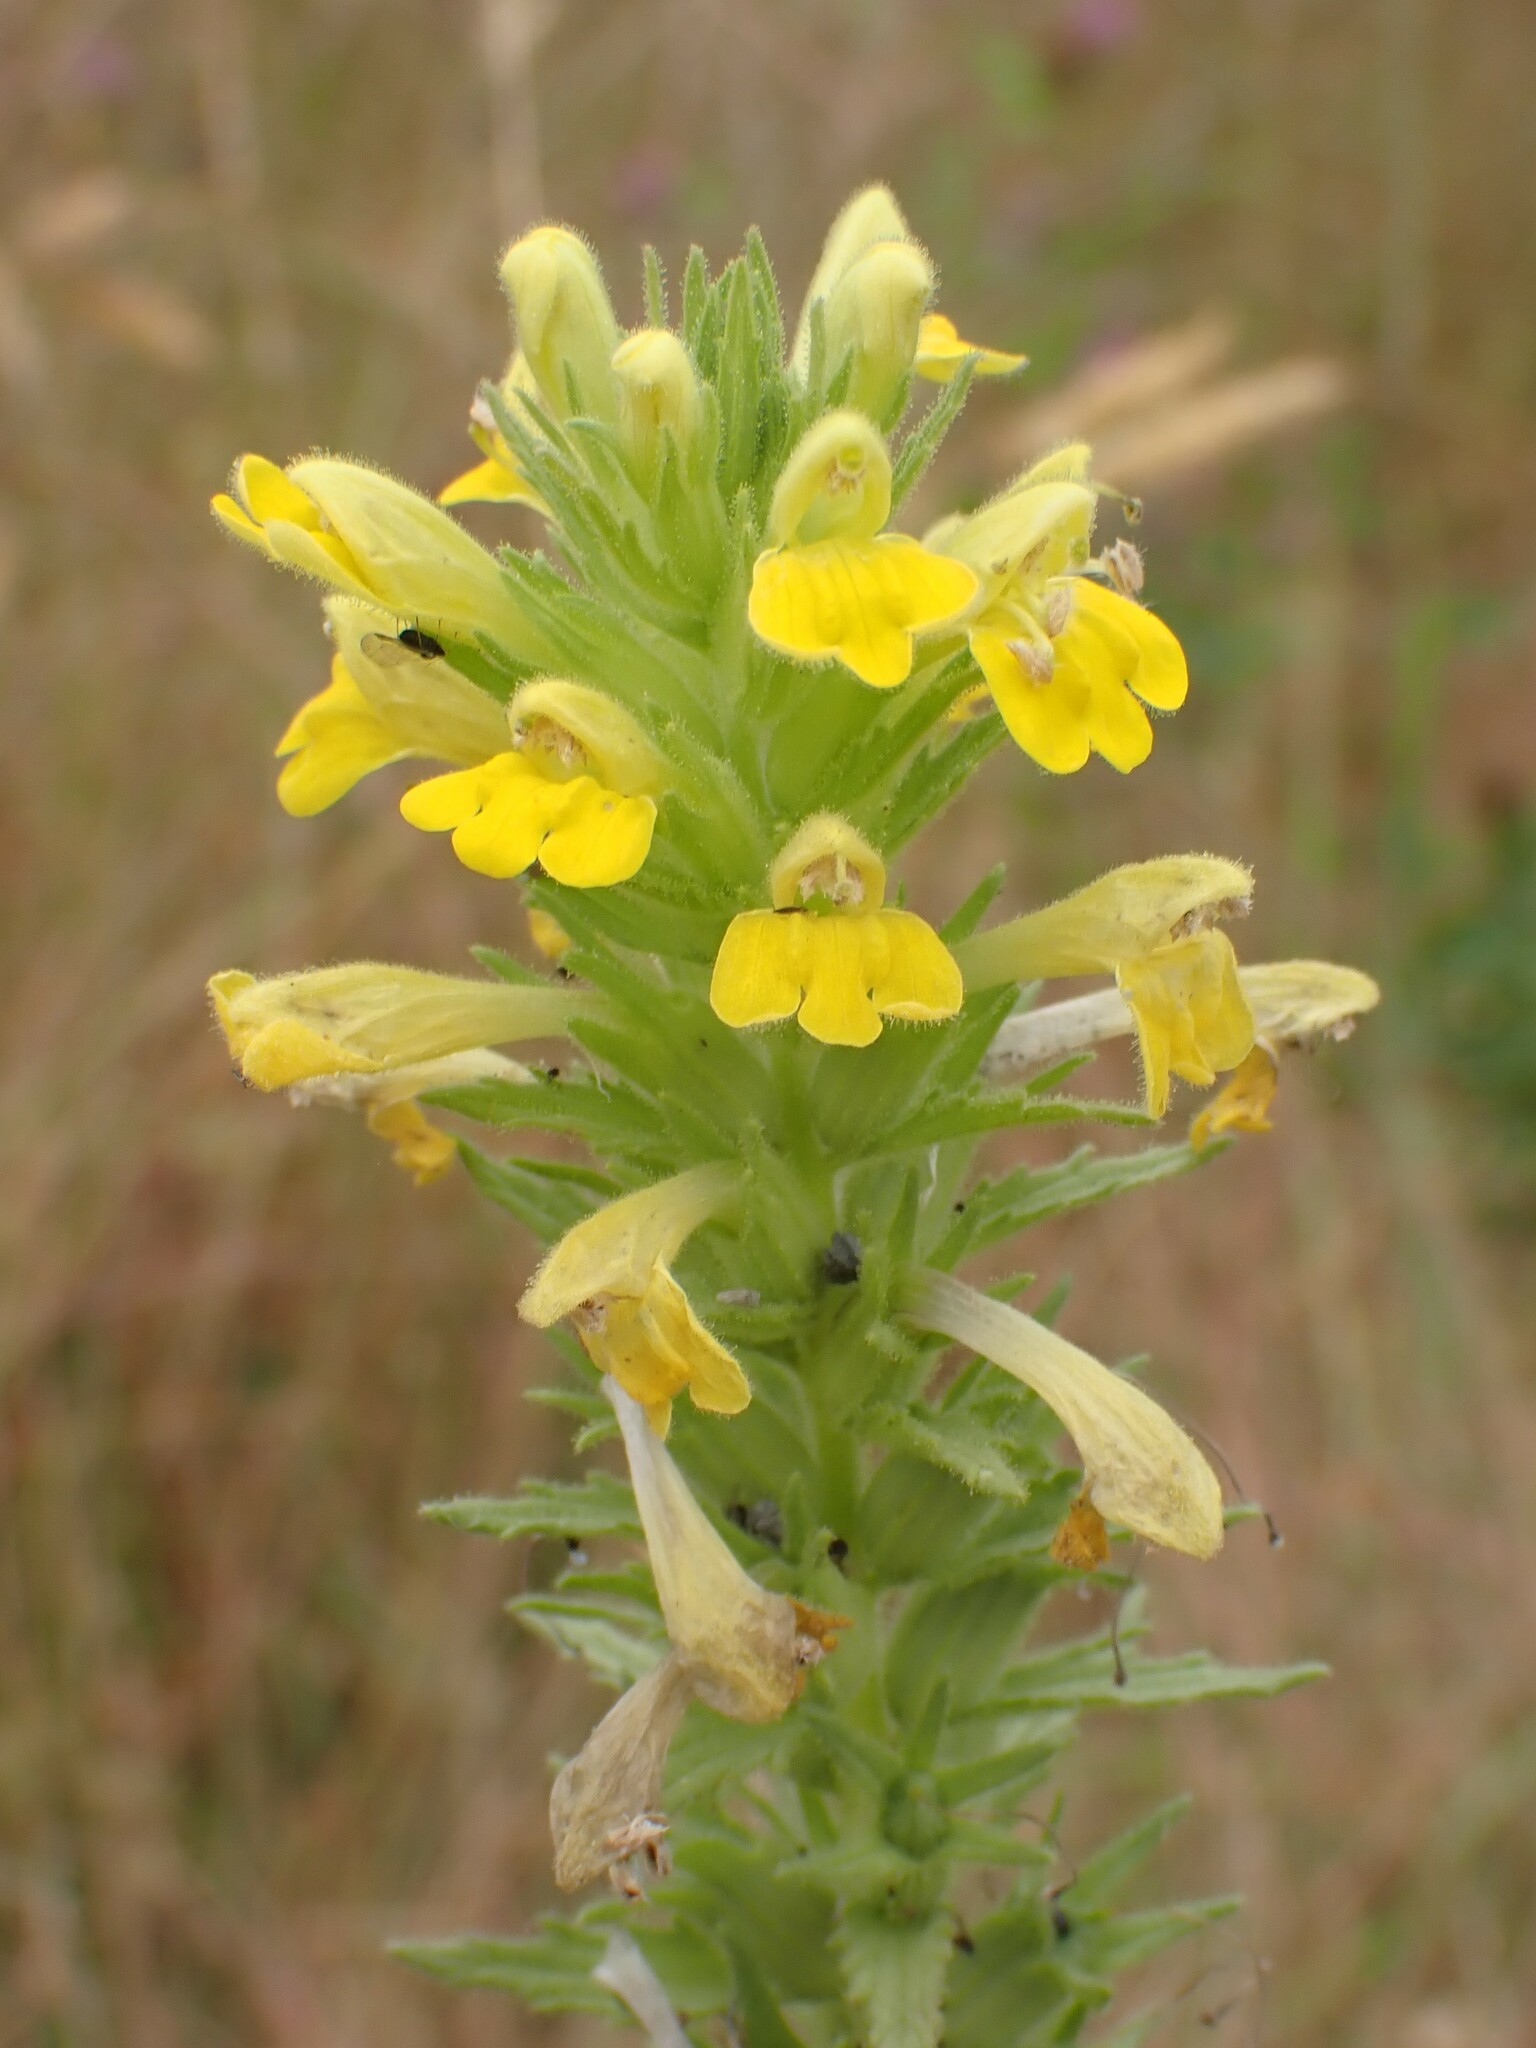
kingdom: Plantae
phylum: Tracheophyta
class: Magnoliopsida
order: Lamiales
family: Orobanchaceae
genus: Bellardia
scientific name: Bellardia viscosa
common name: Sticky parentucellia
